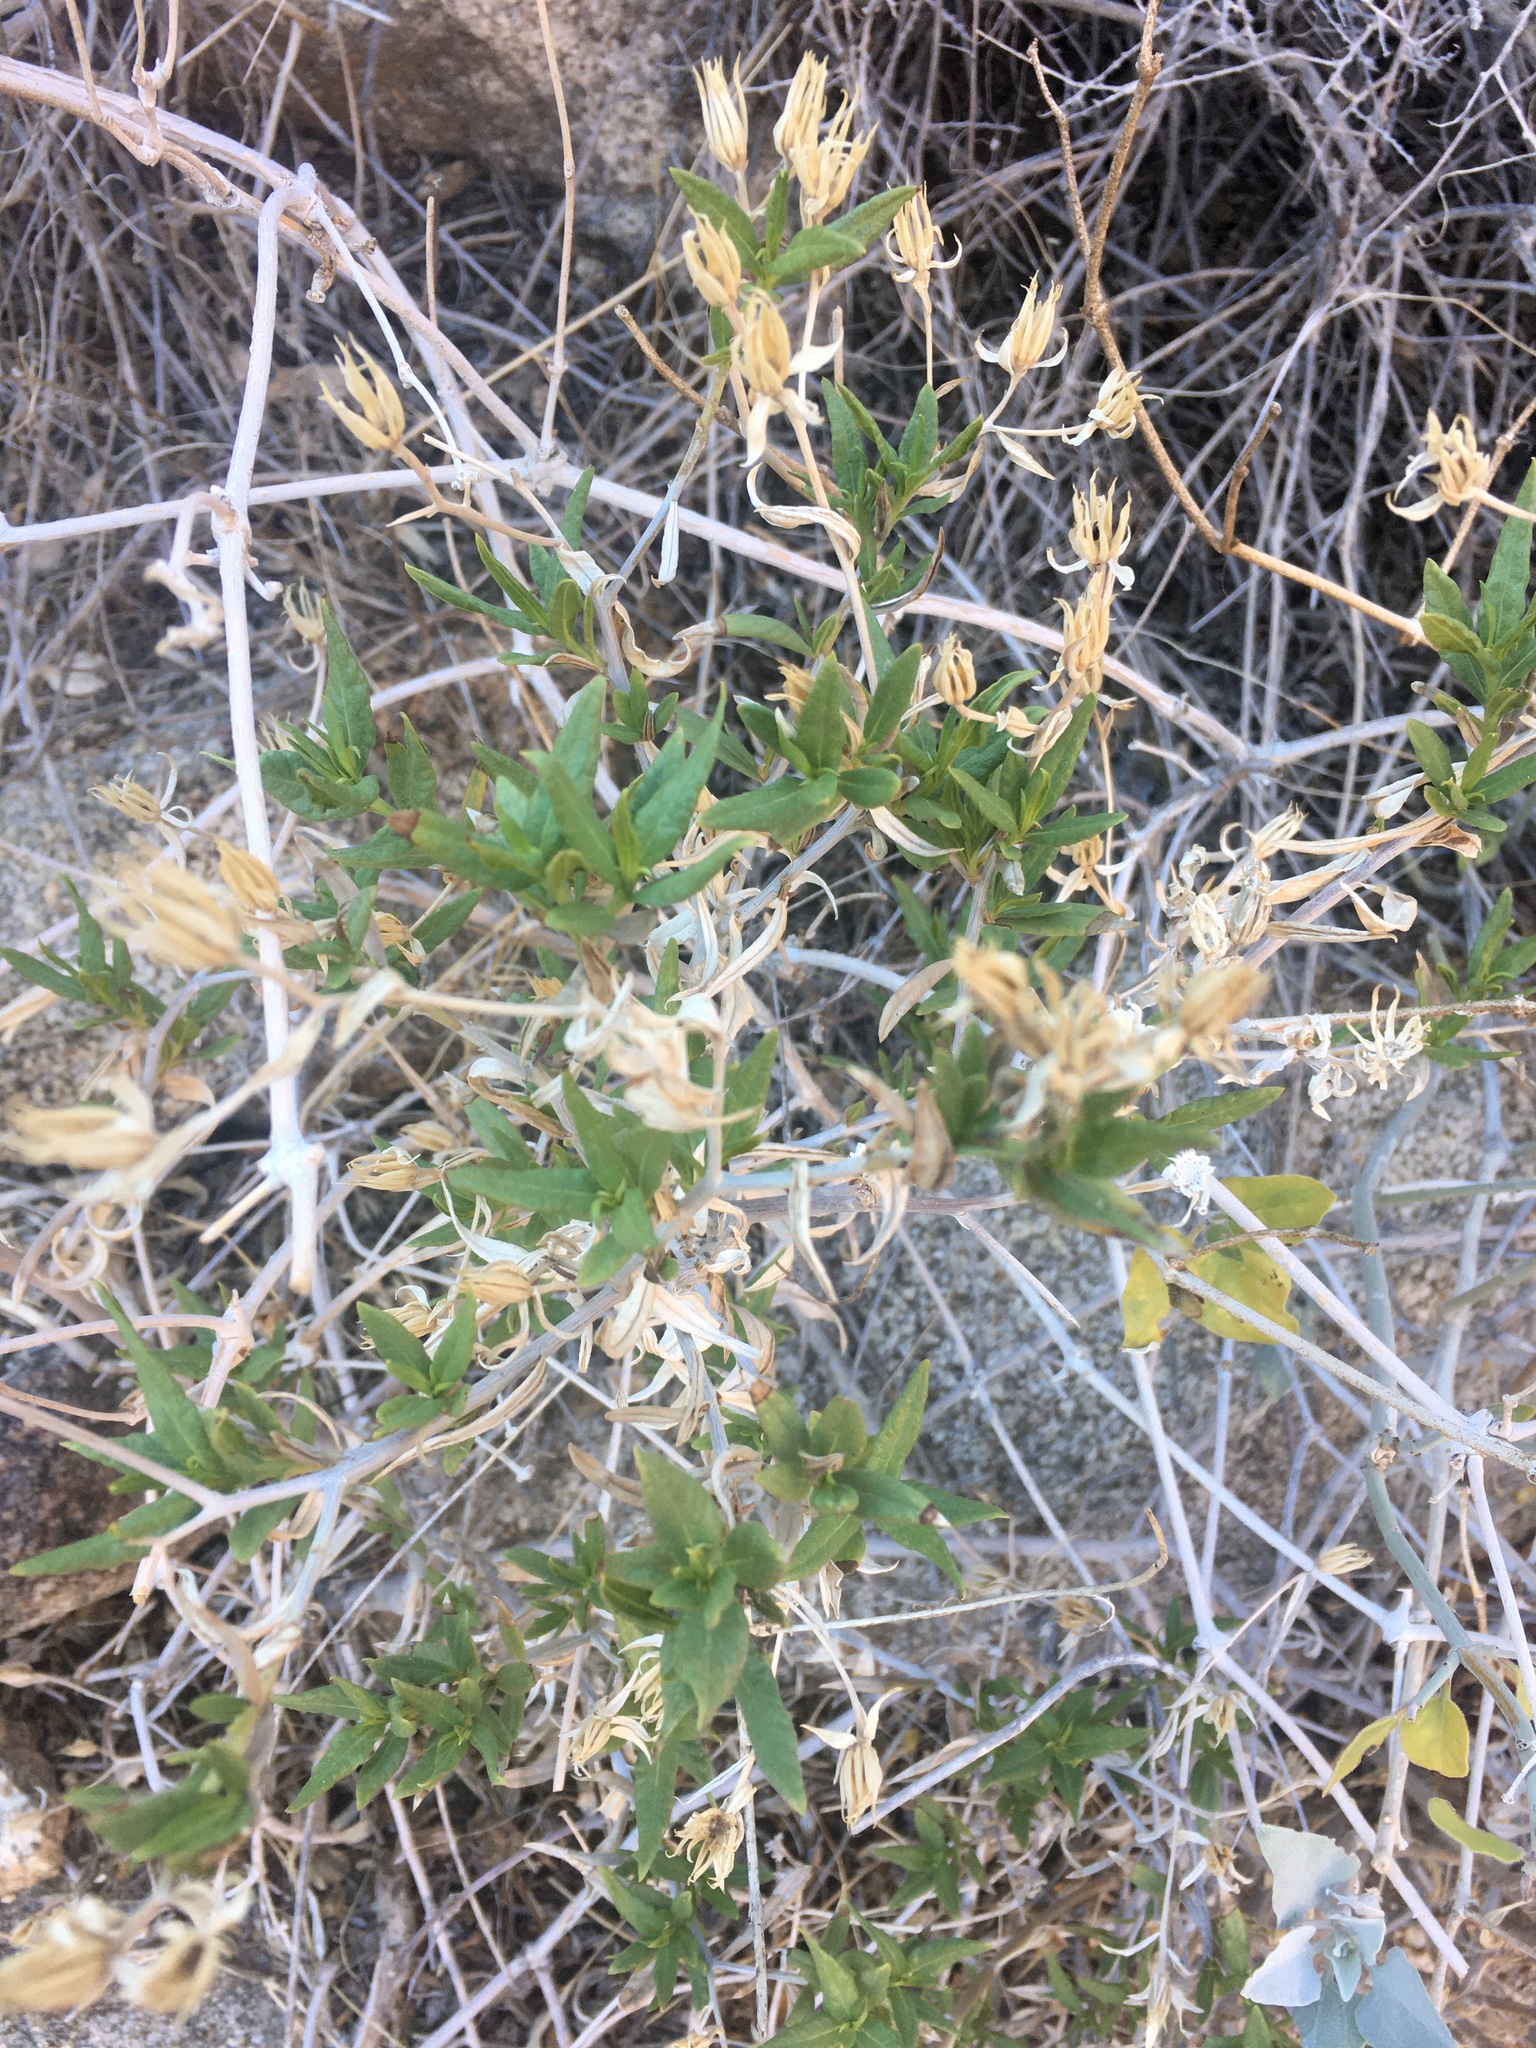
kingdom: Plantae
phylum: Tracheophyta
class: Magnoliopsida
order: Asterales
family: Asteraceae
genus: Trixis
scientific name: Trixis californica
